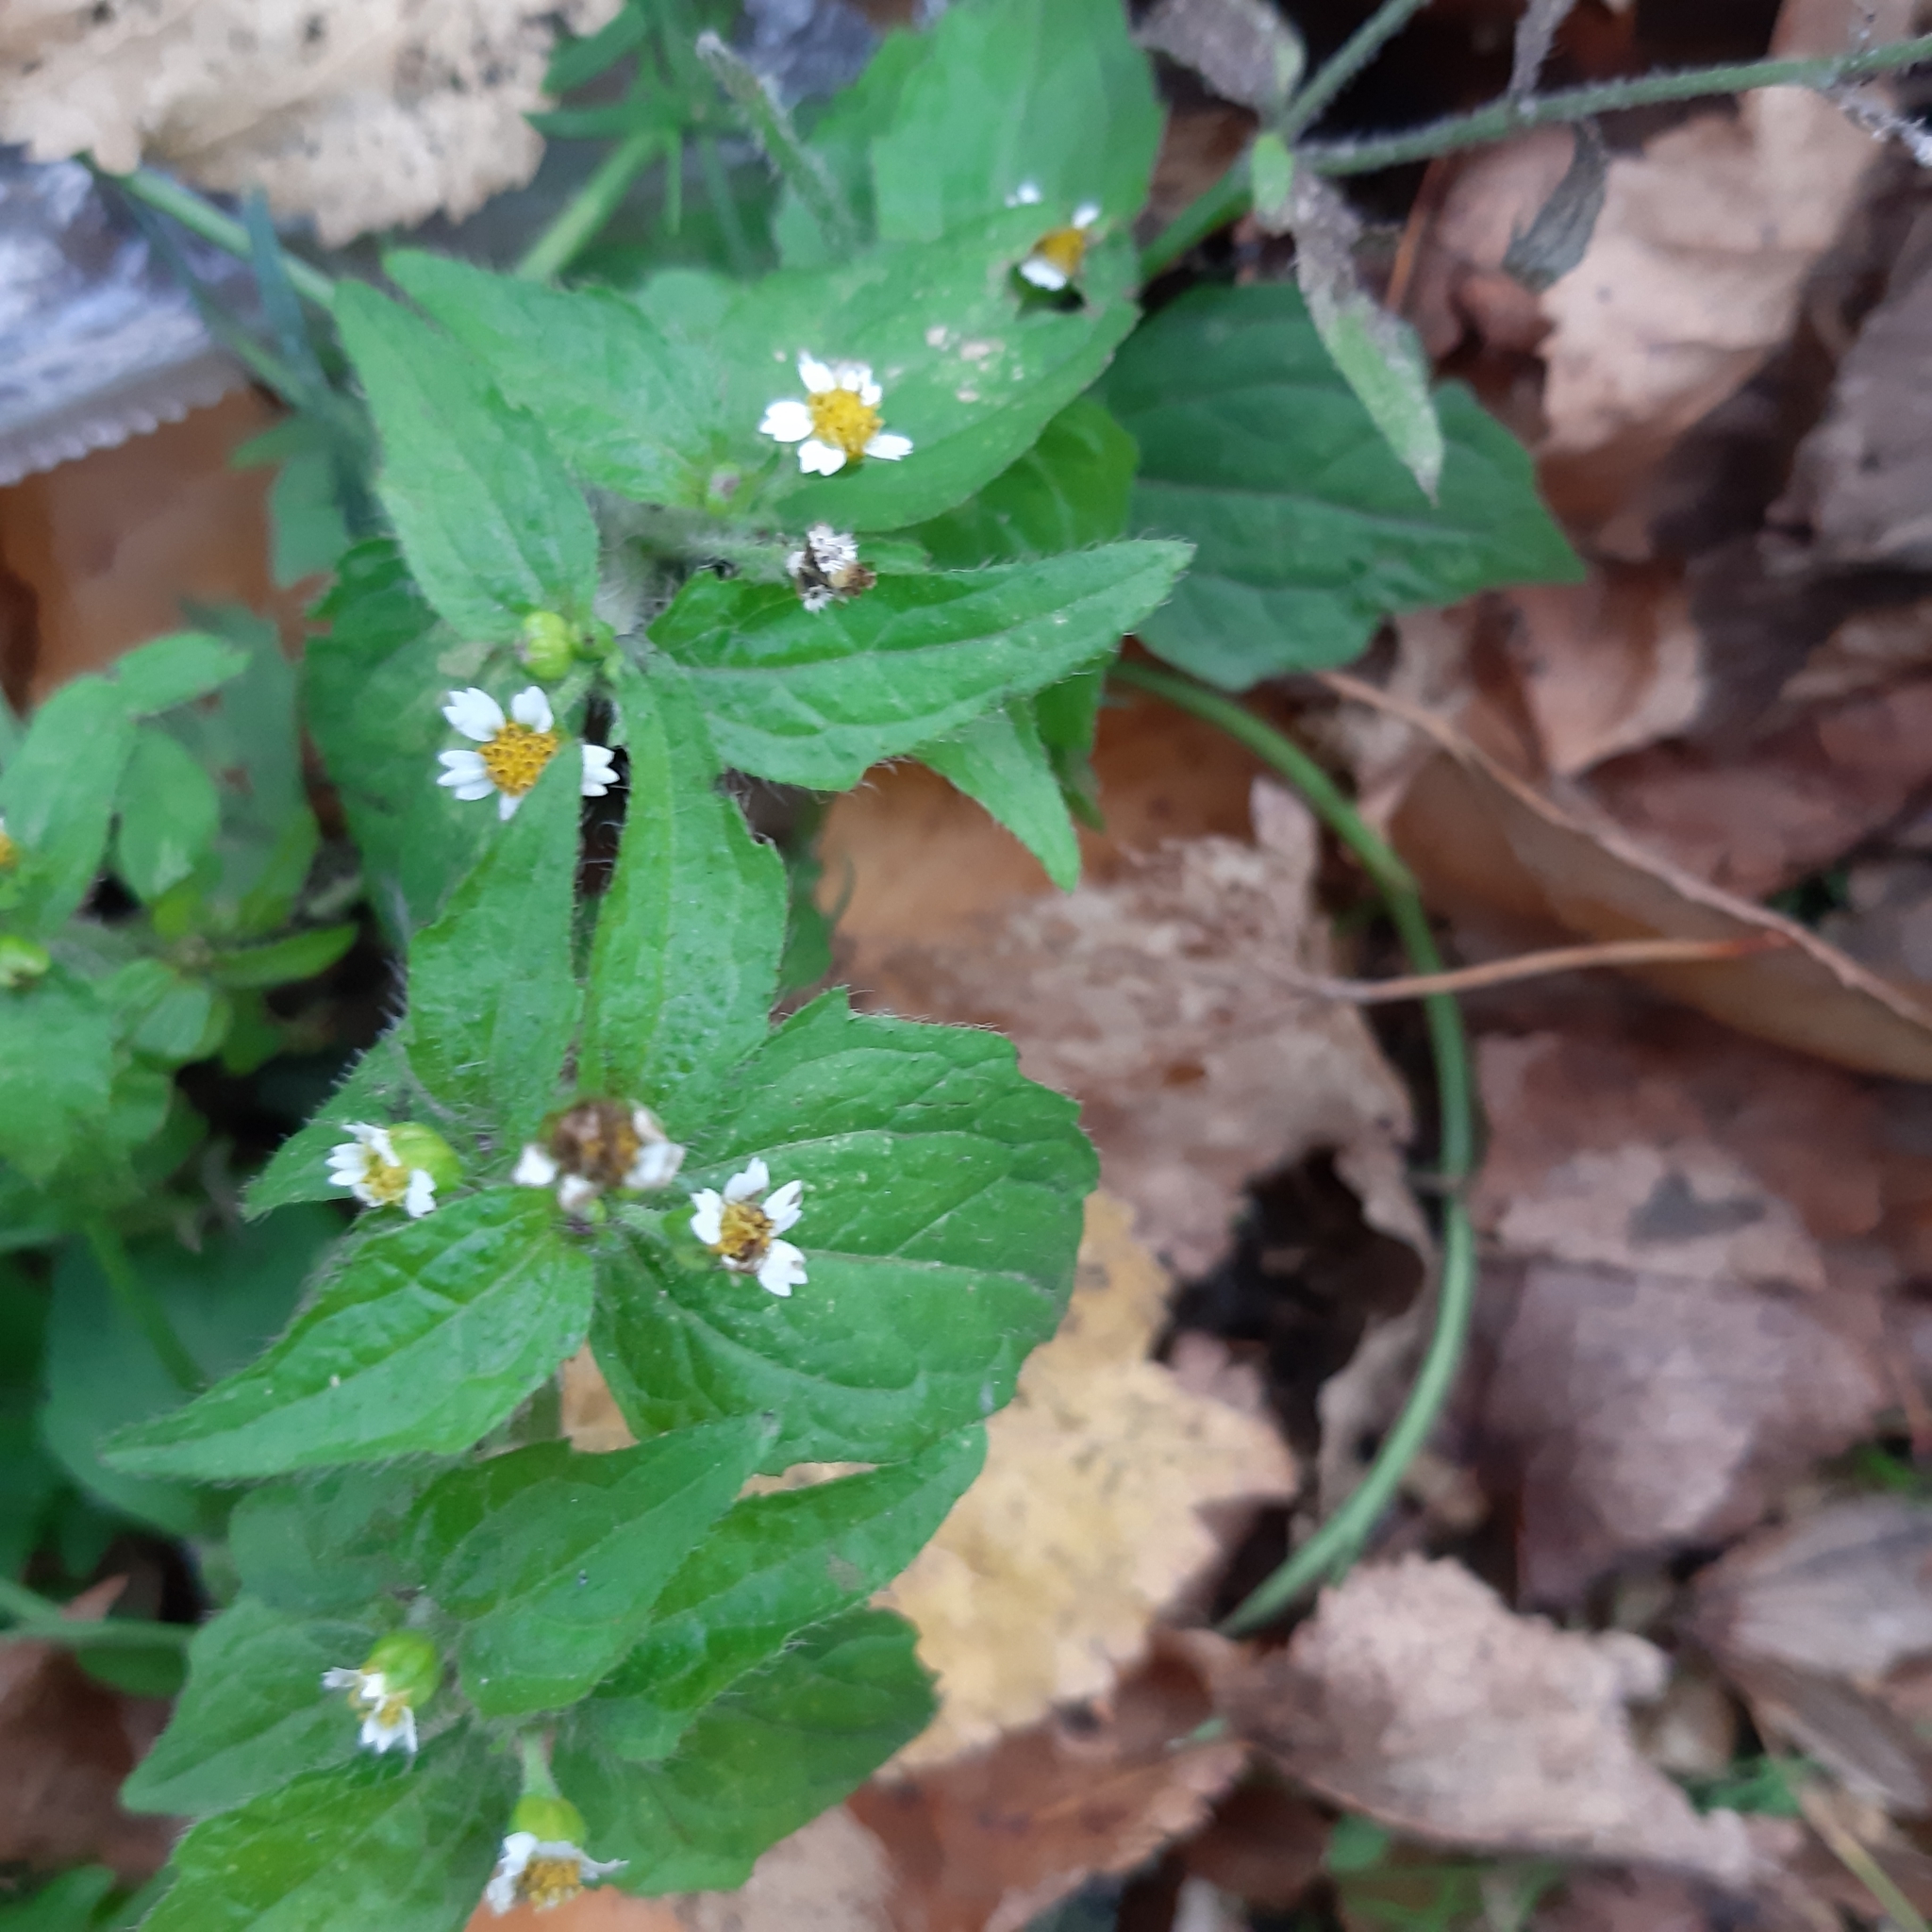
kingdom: Plantae
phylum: Tracheophyta
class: Magnoliopsida
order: Asterales
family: Asteraceae
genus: Galinsoga
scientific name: Galinsoga quadriradiata
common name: Shaggy soldier
